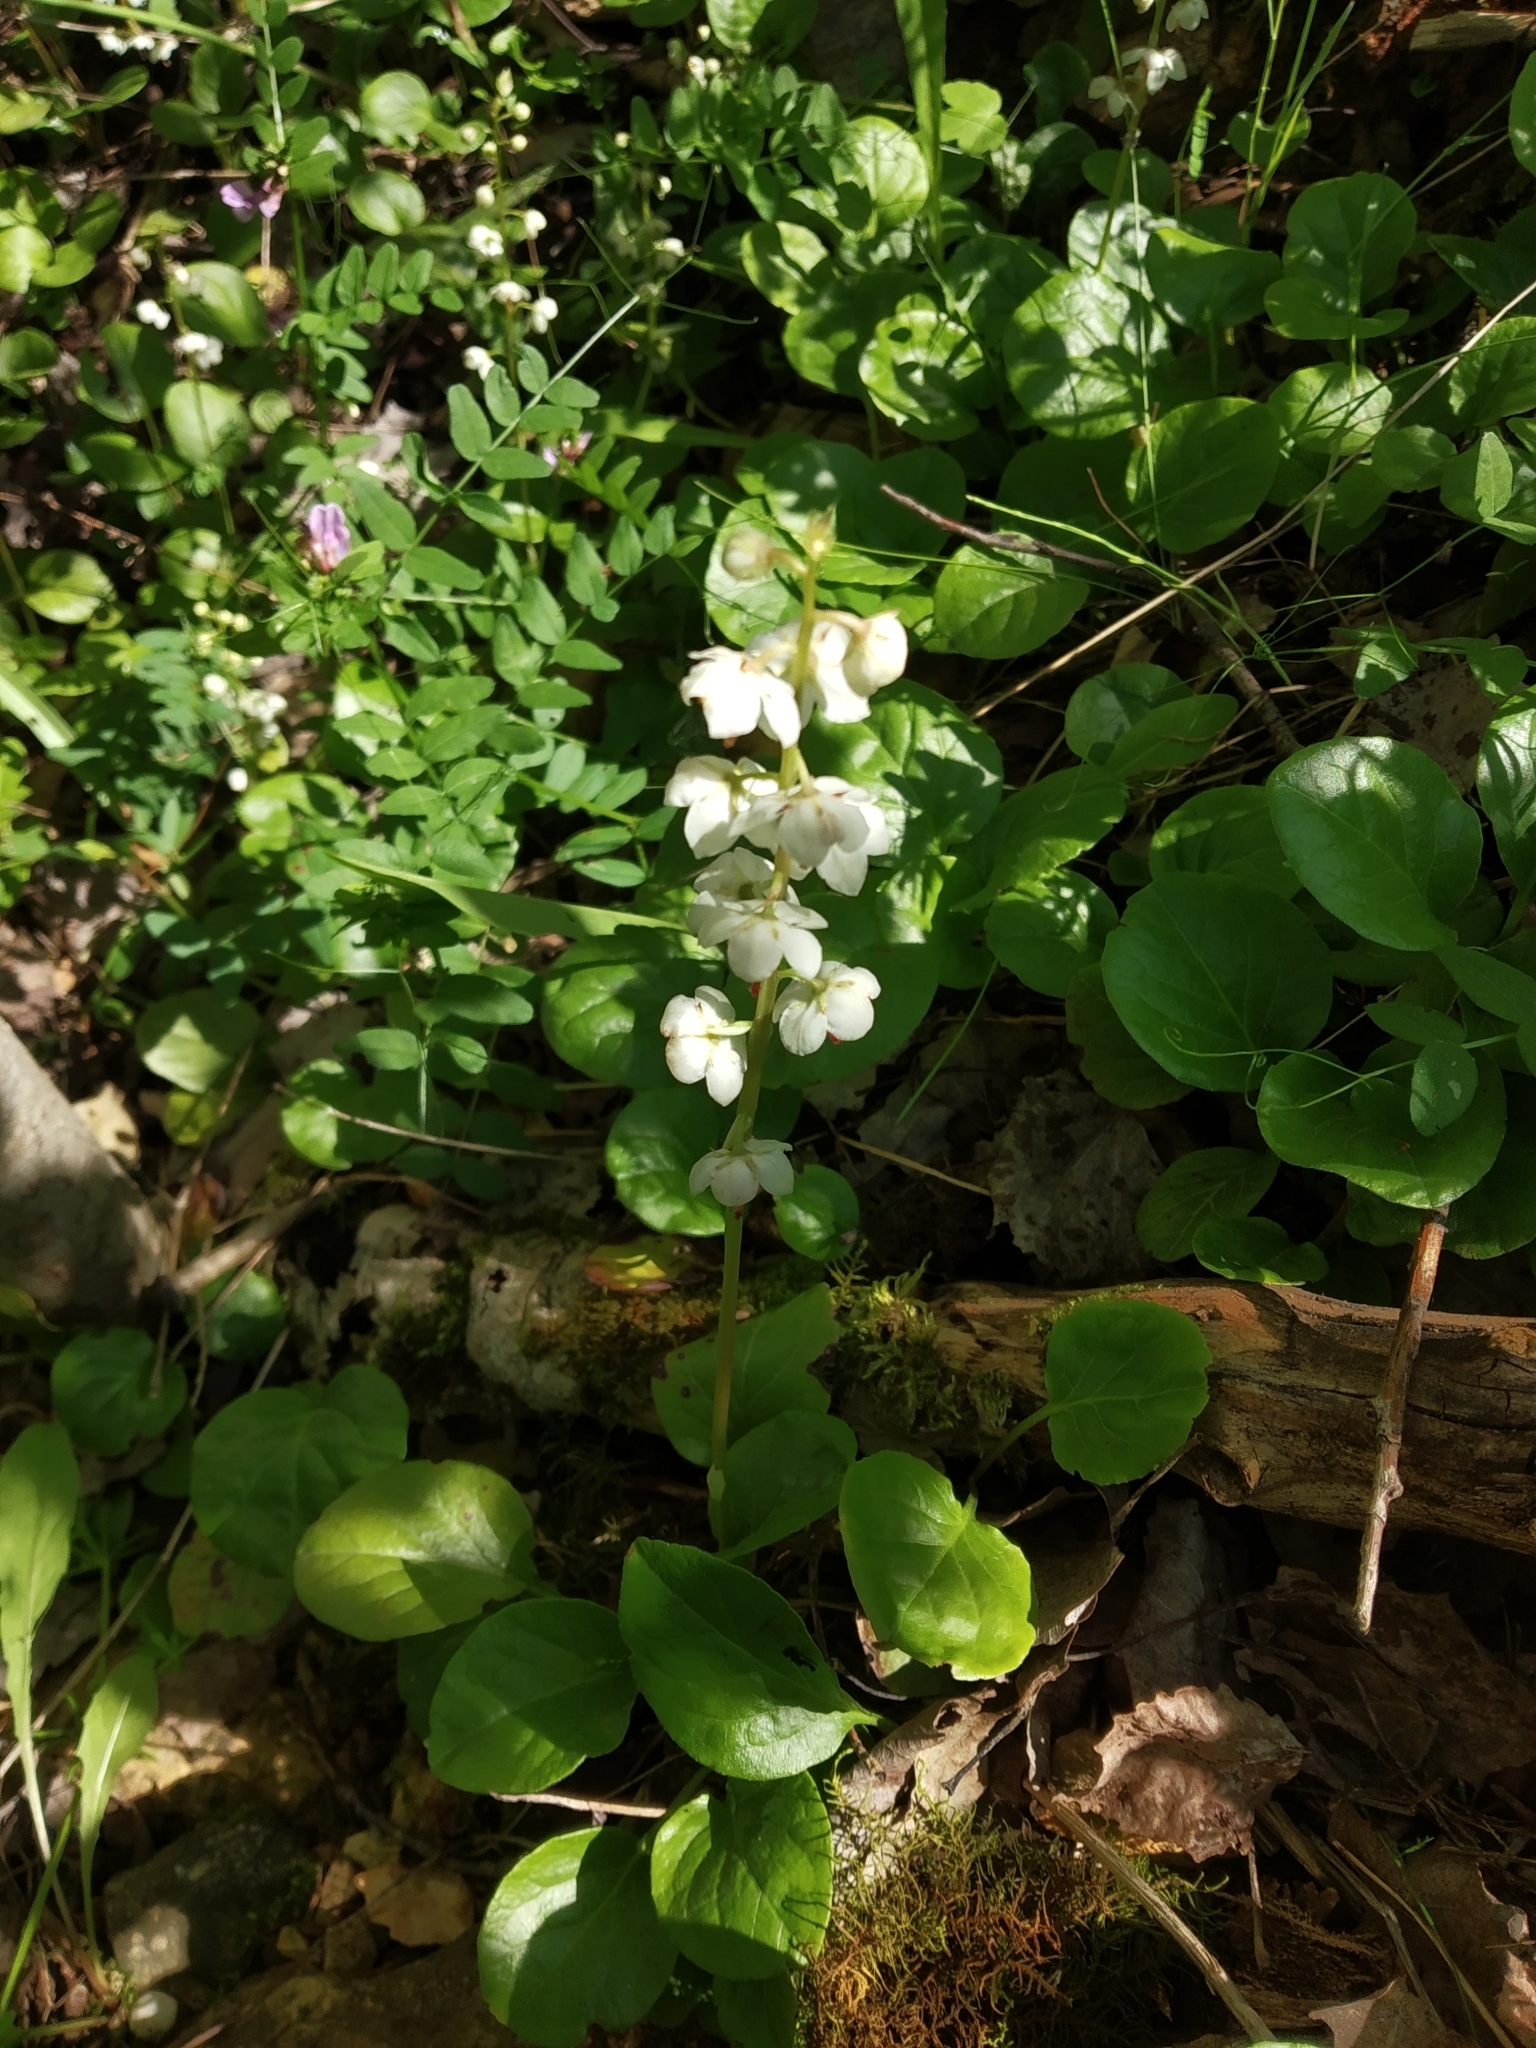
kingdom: Plantae
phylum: Tracheophyta
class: Magnoliopsida
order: Ericales
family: Ericaceae
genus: Pyrola
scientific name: Pyrola rotundifolia
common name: Round-leaved wintergreen
